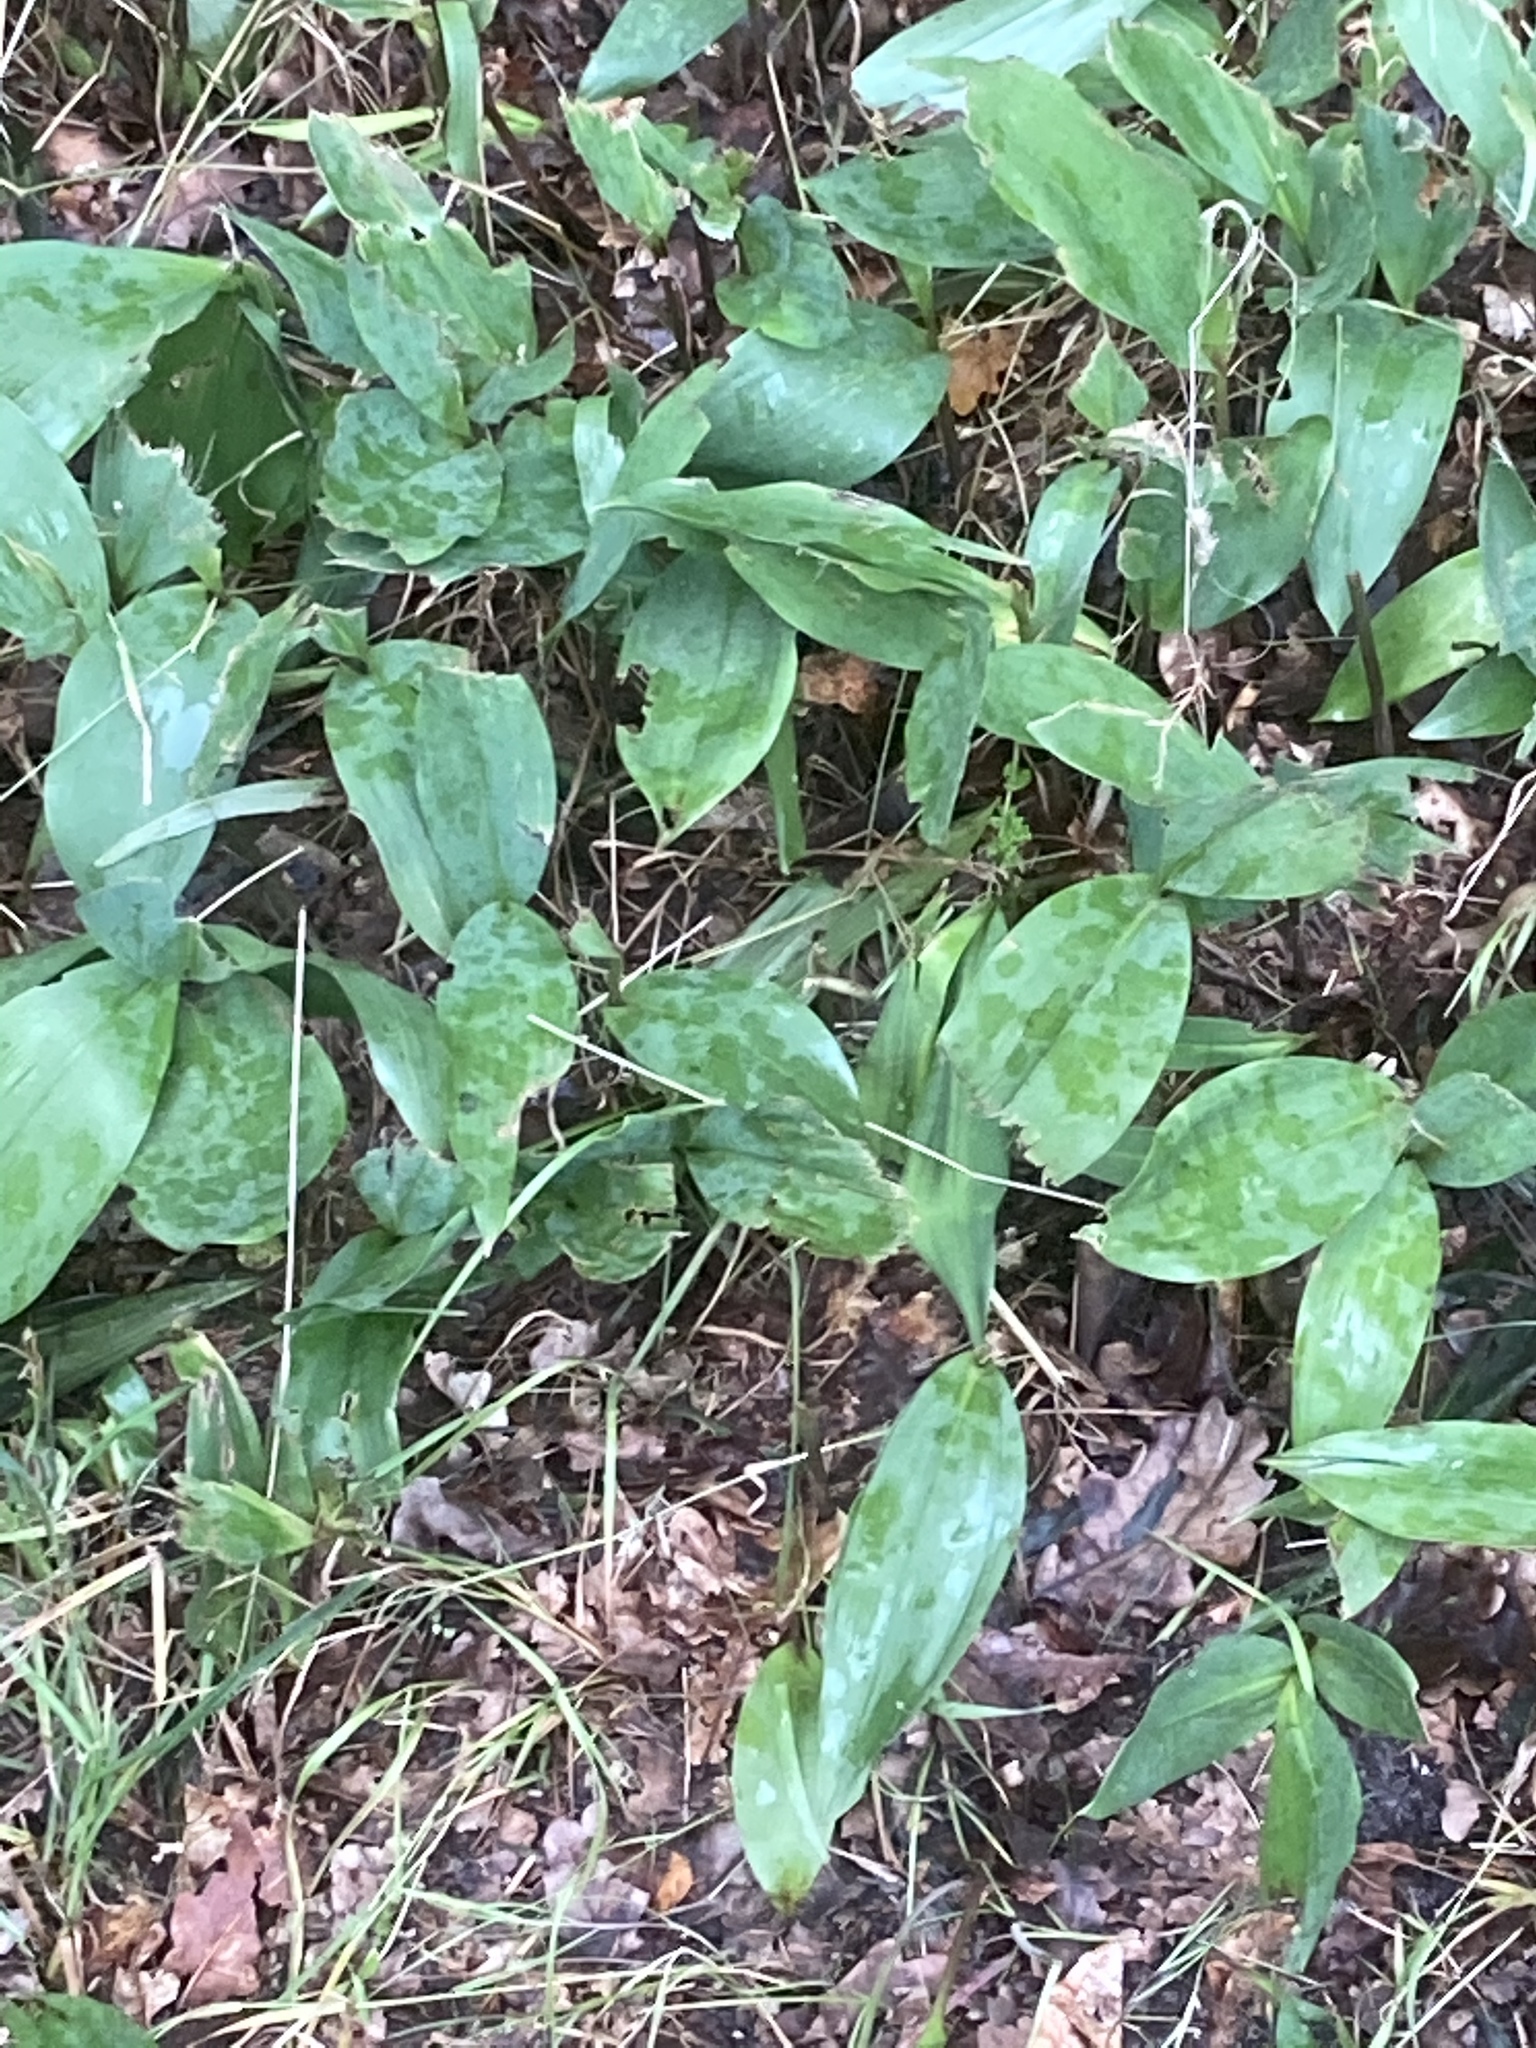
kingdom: Plantae
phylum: Tracheophyta
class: Liliopsida
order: Asparagales
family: Asparagaceae
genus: Convallaria
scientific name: Convallaria majalis
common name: Lily-of-the-valley
